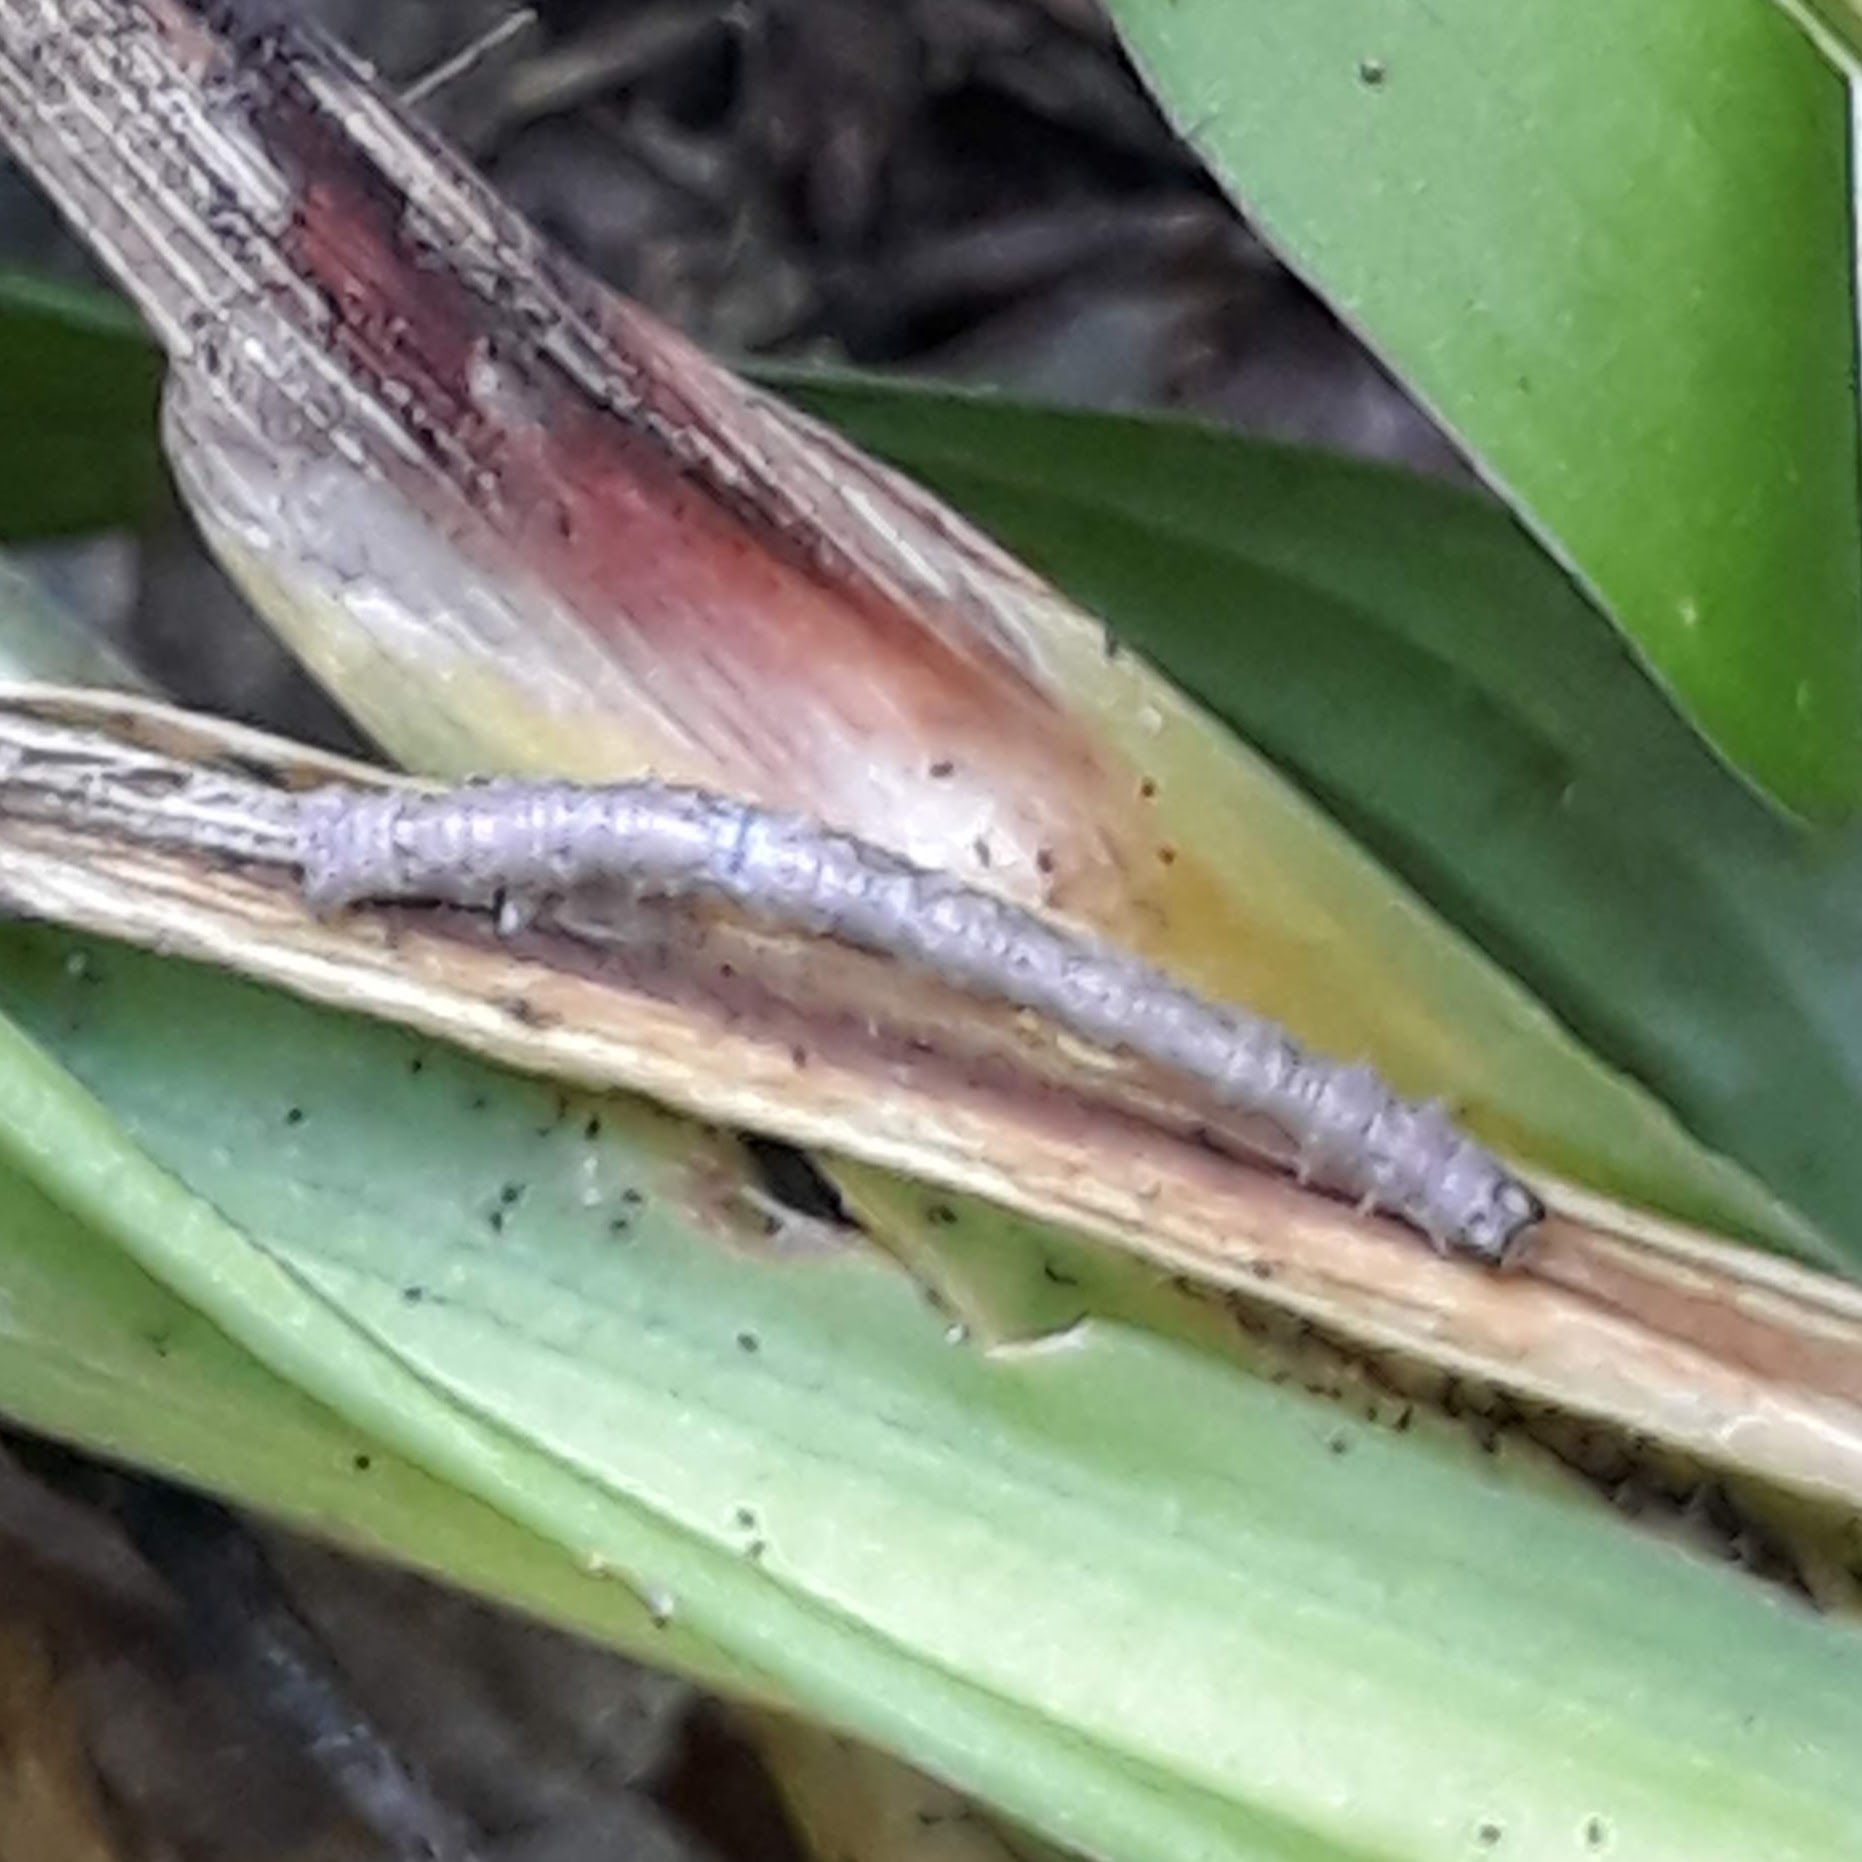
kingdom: Animalia
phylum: Arthropoda
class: Insecta
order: Lepidoptera
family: Geometridae
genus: Campaea
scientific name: Campaea perlata
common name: Fringed looper
